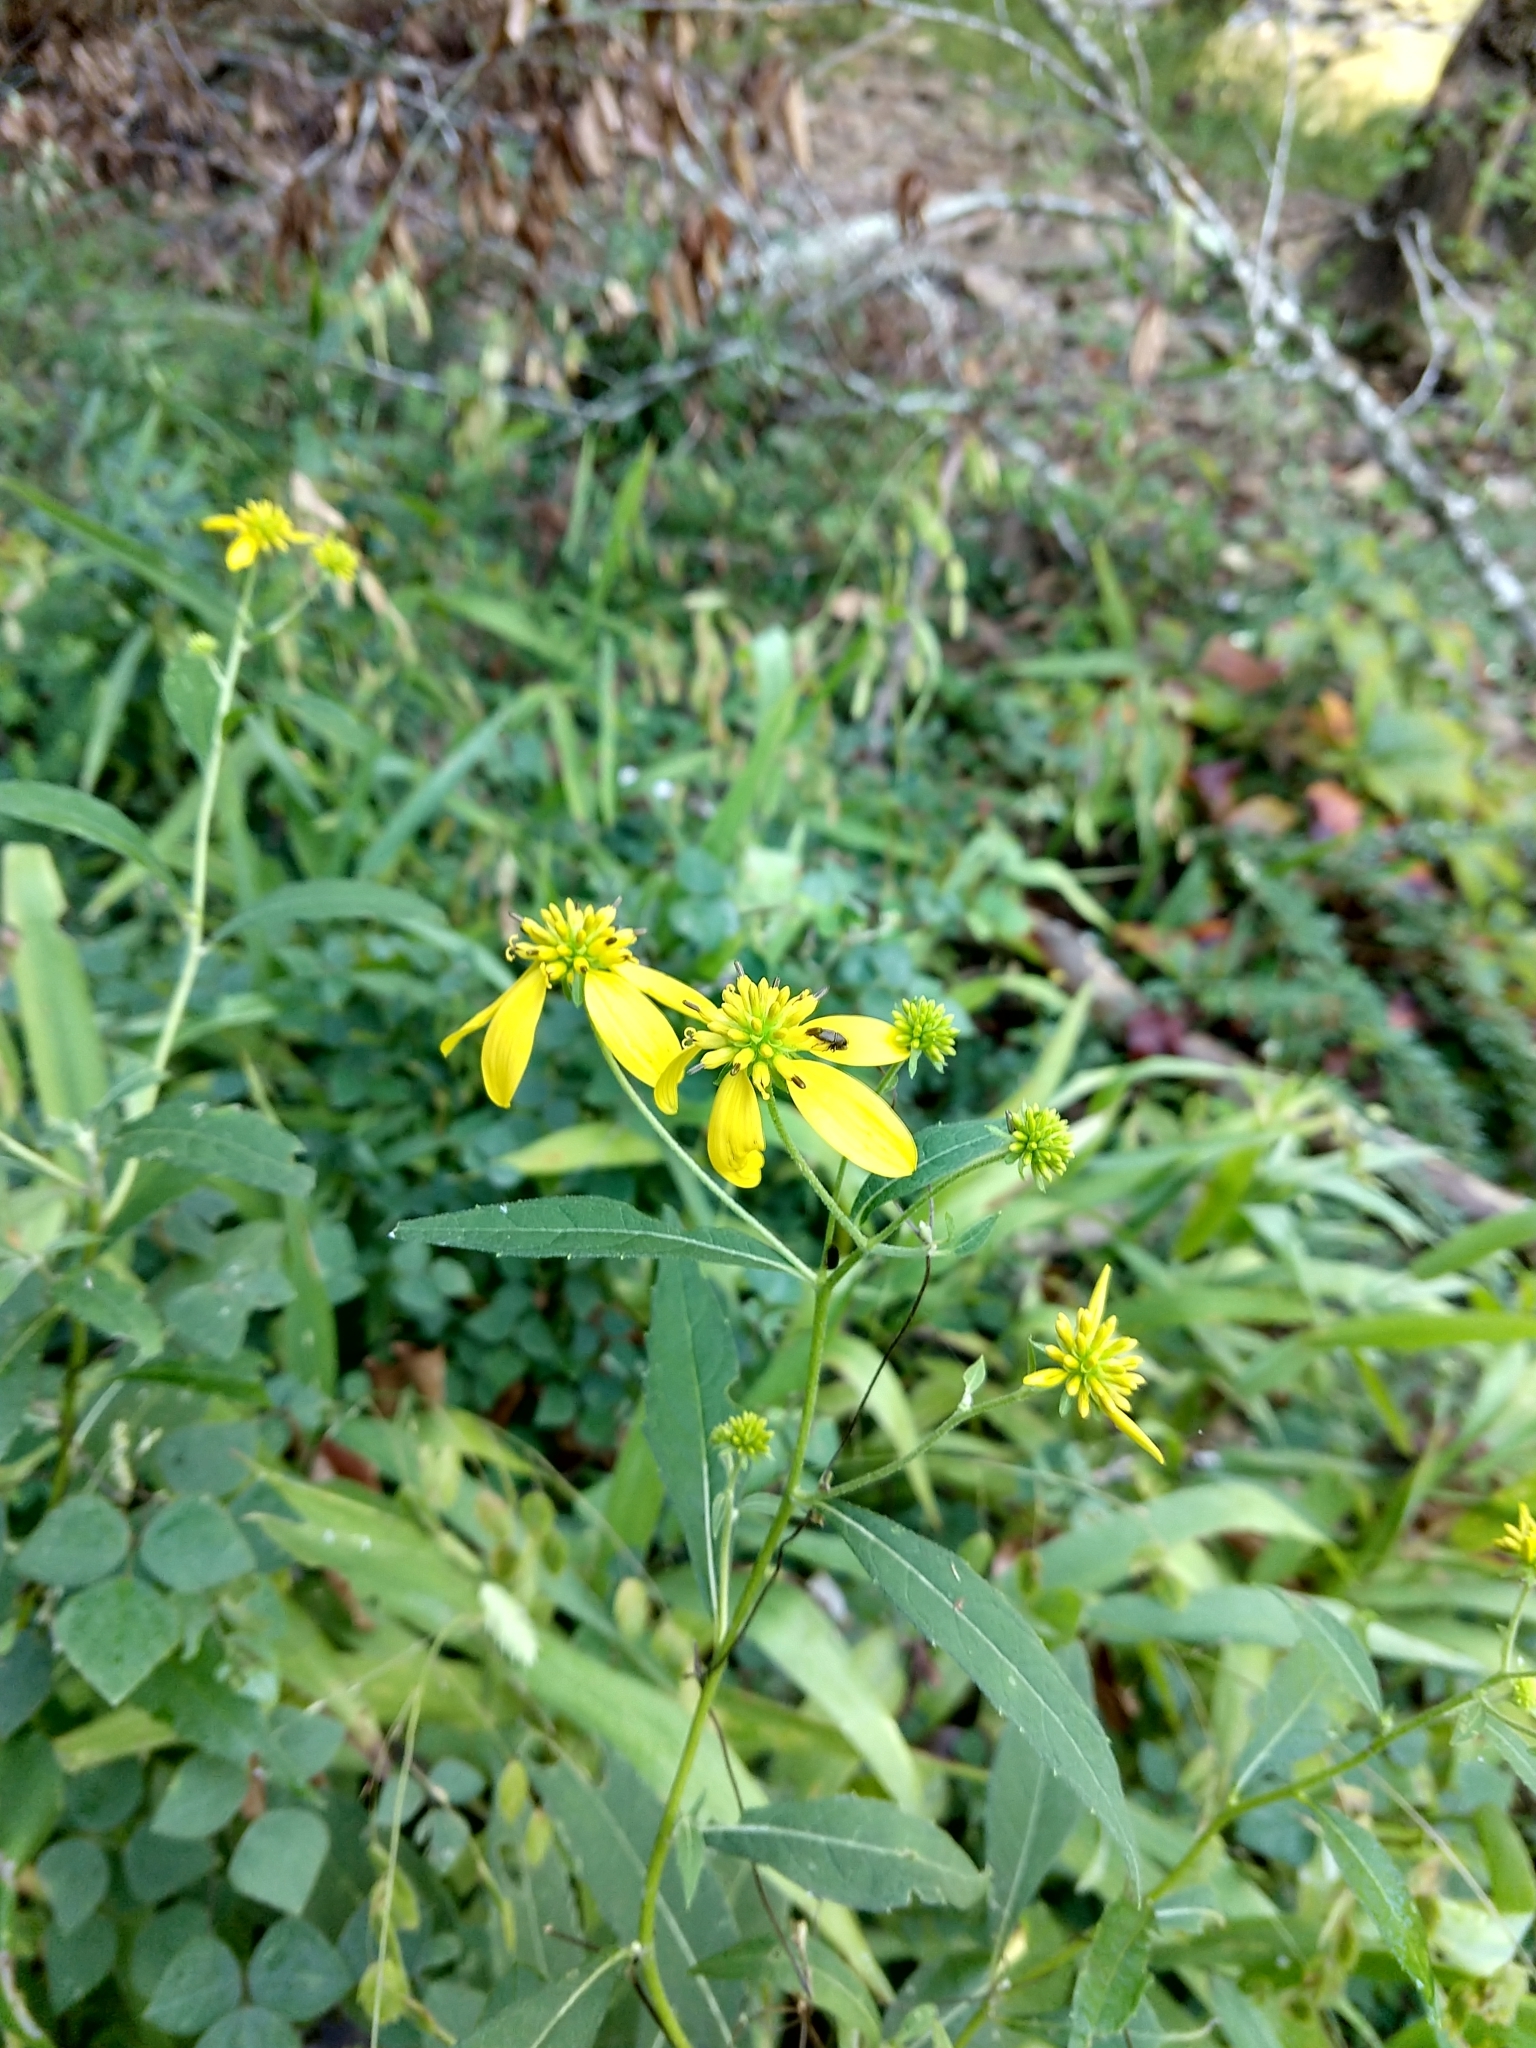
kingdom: Plantae
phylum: Tracheophyta
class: Magnoliopsida
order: Asterales
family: Asteraceae
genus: Verbesina
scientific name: Verbesina alternifolia
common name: Wingstem
